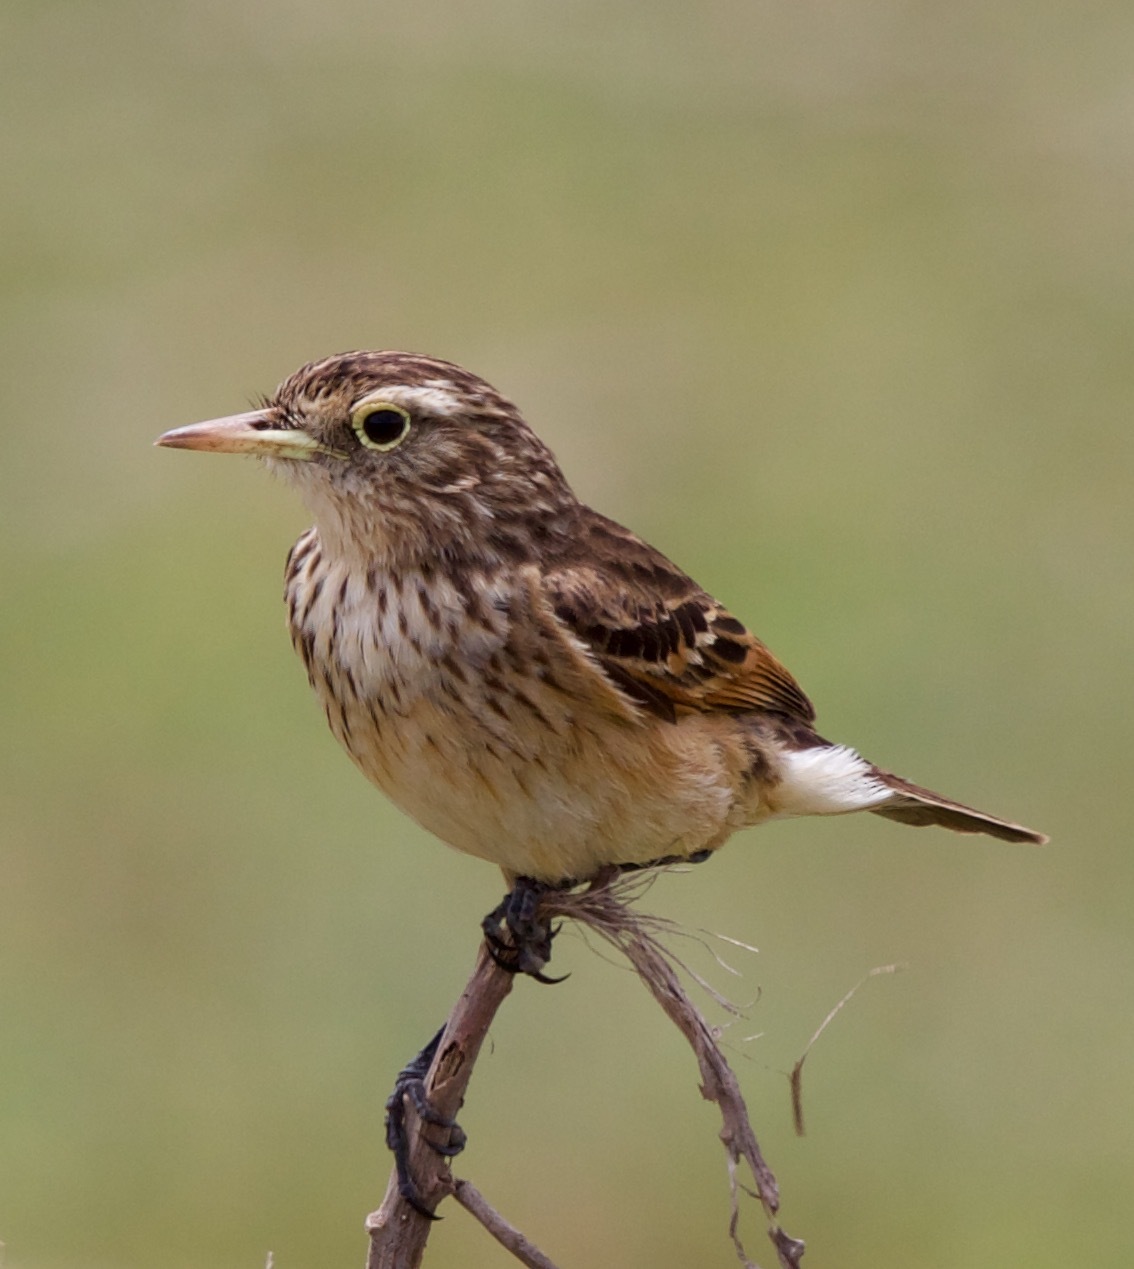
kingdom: Animalia
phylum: Chordata
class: Aves
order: Passeriformes
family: Tyrannidae
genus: Hymenops
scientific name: Hymenops perspicillatus
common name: Spectacled tyrant
